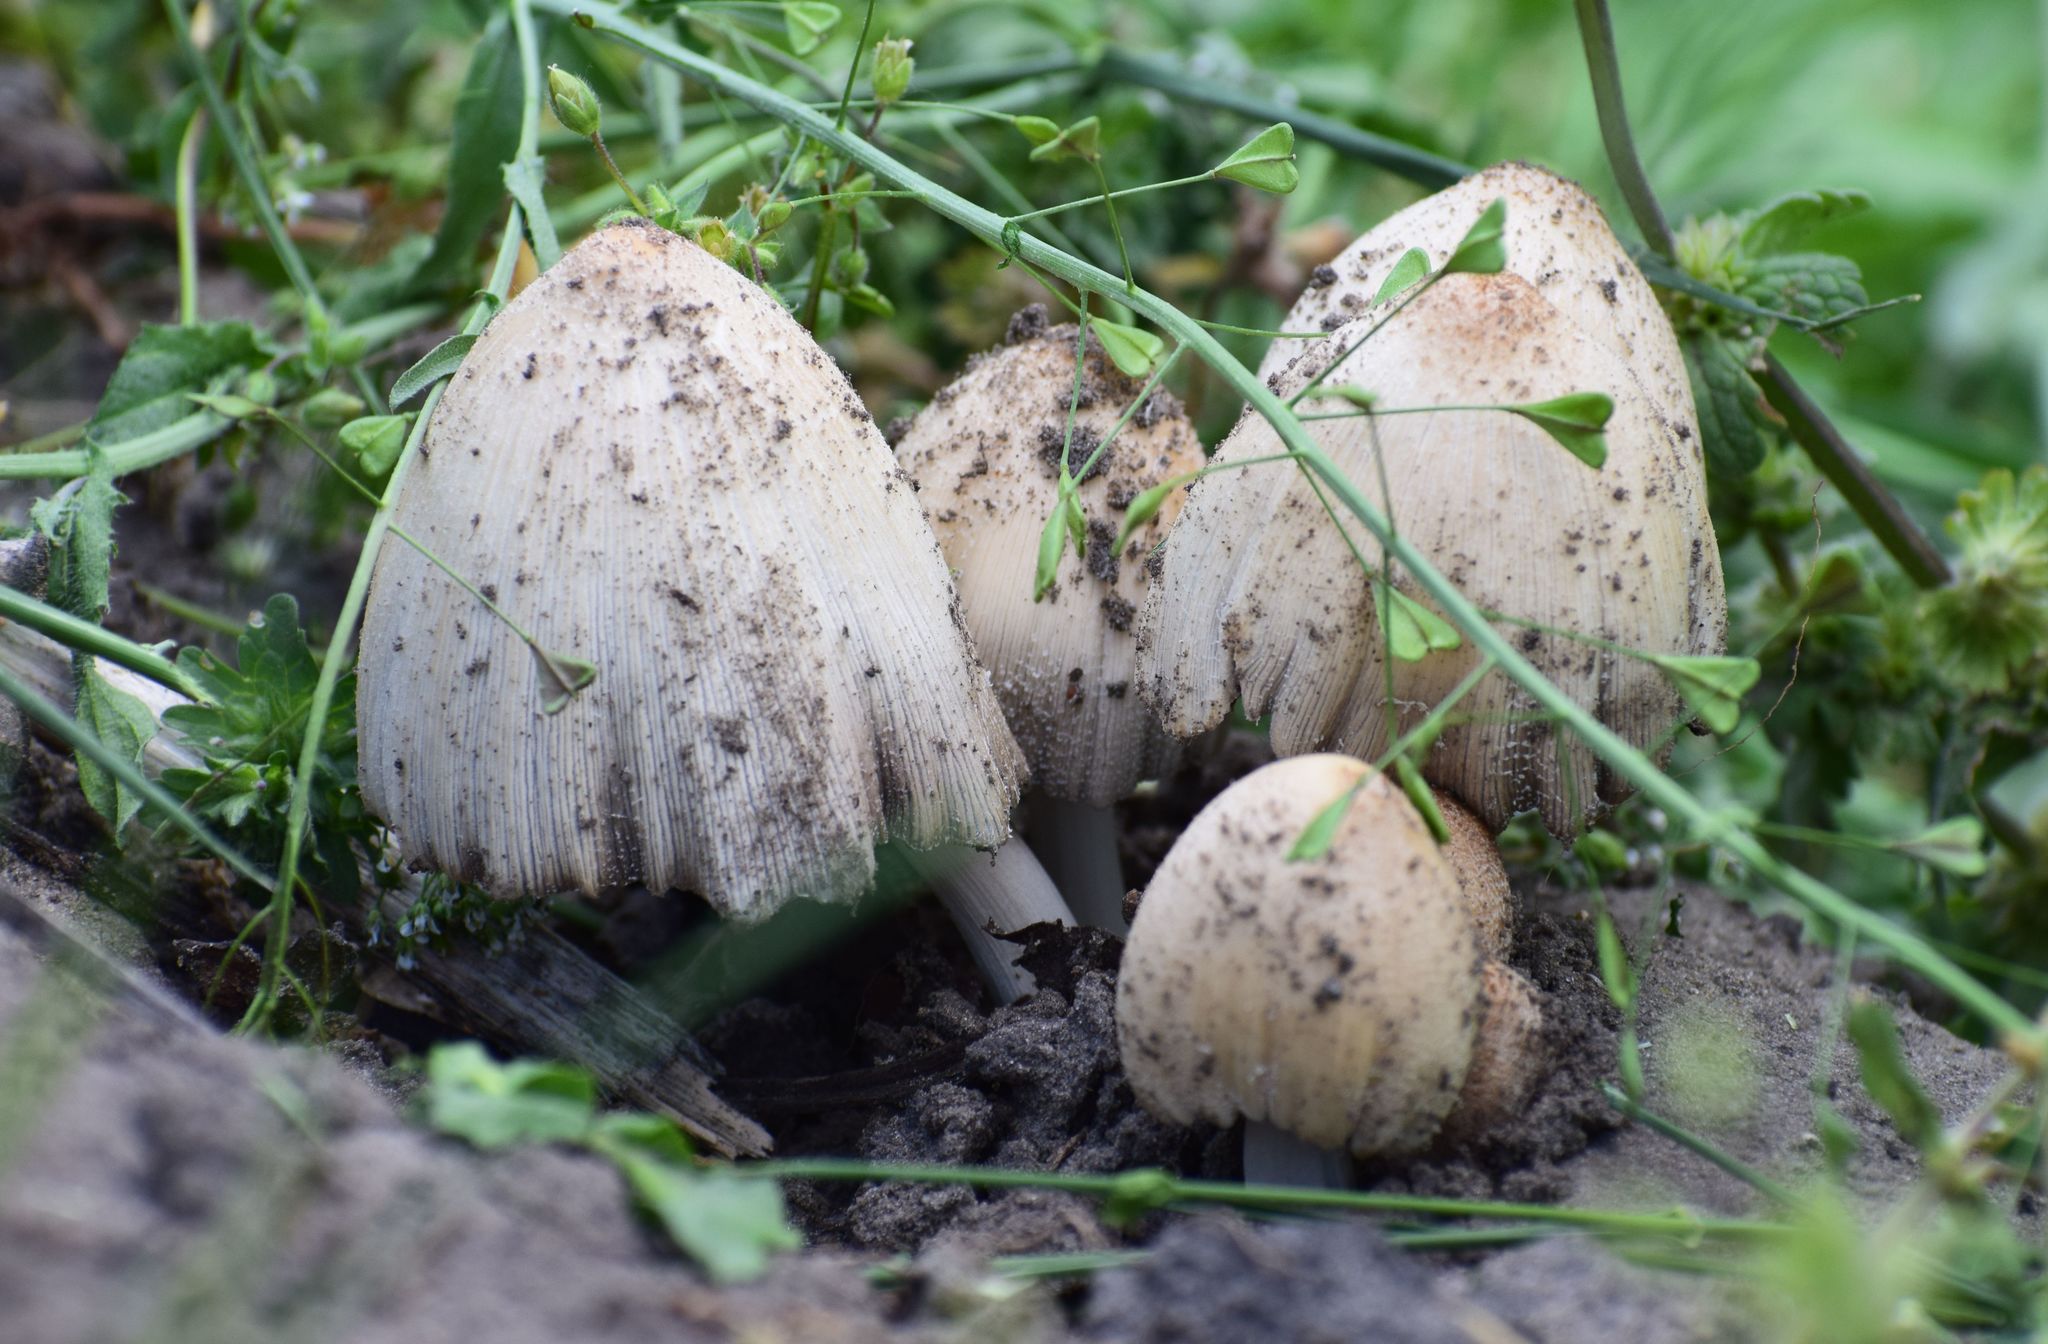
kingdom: Fungi
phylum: Basidiomycota
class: Agaricomycetes
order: Agaricales
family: Psathyrellaceae
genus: Coprinopsis
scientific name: Coprinopsis atramentaria
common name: Common ink-cap
